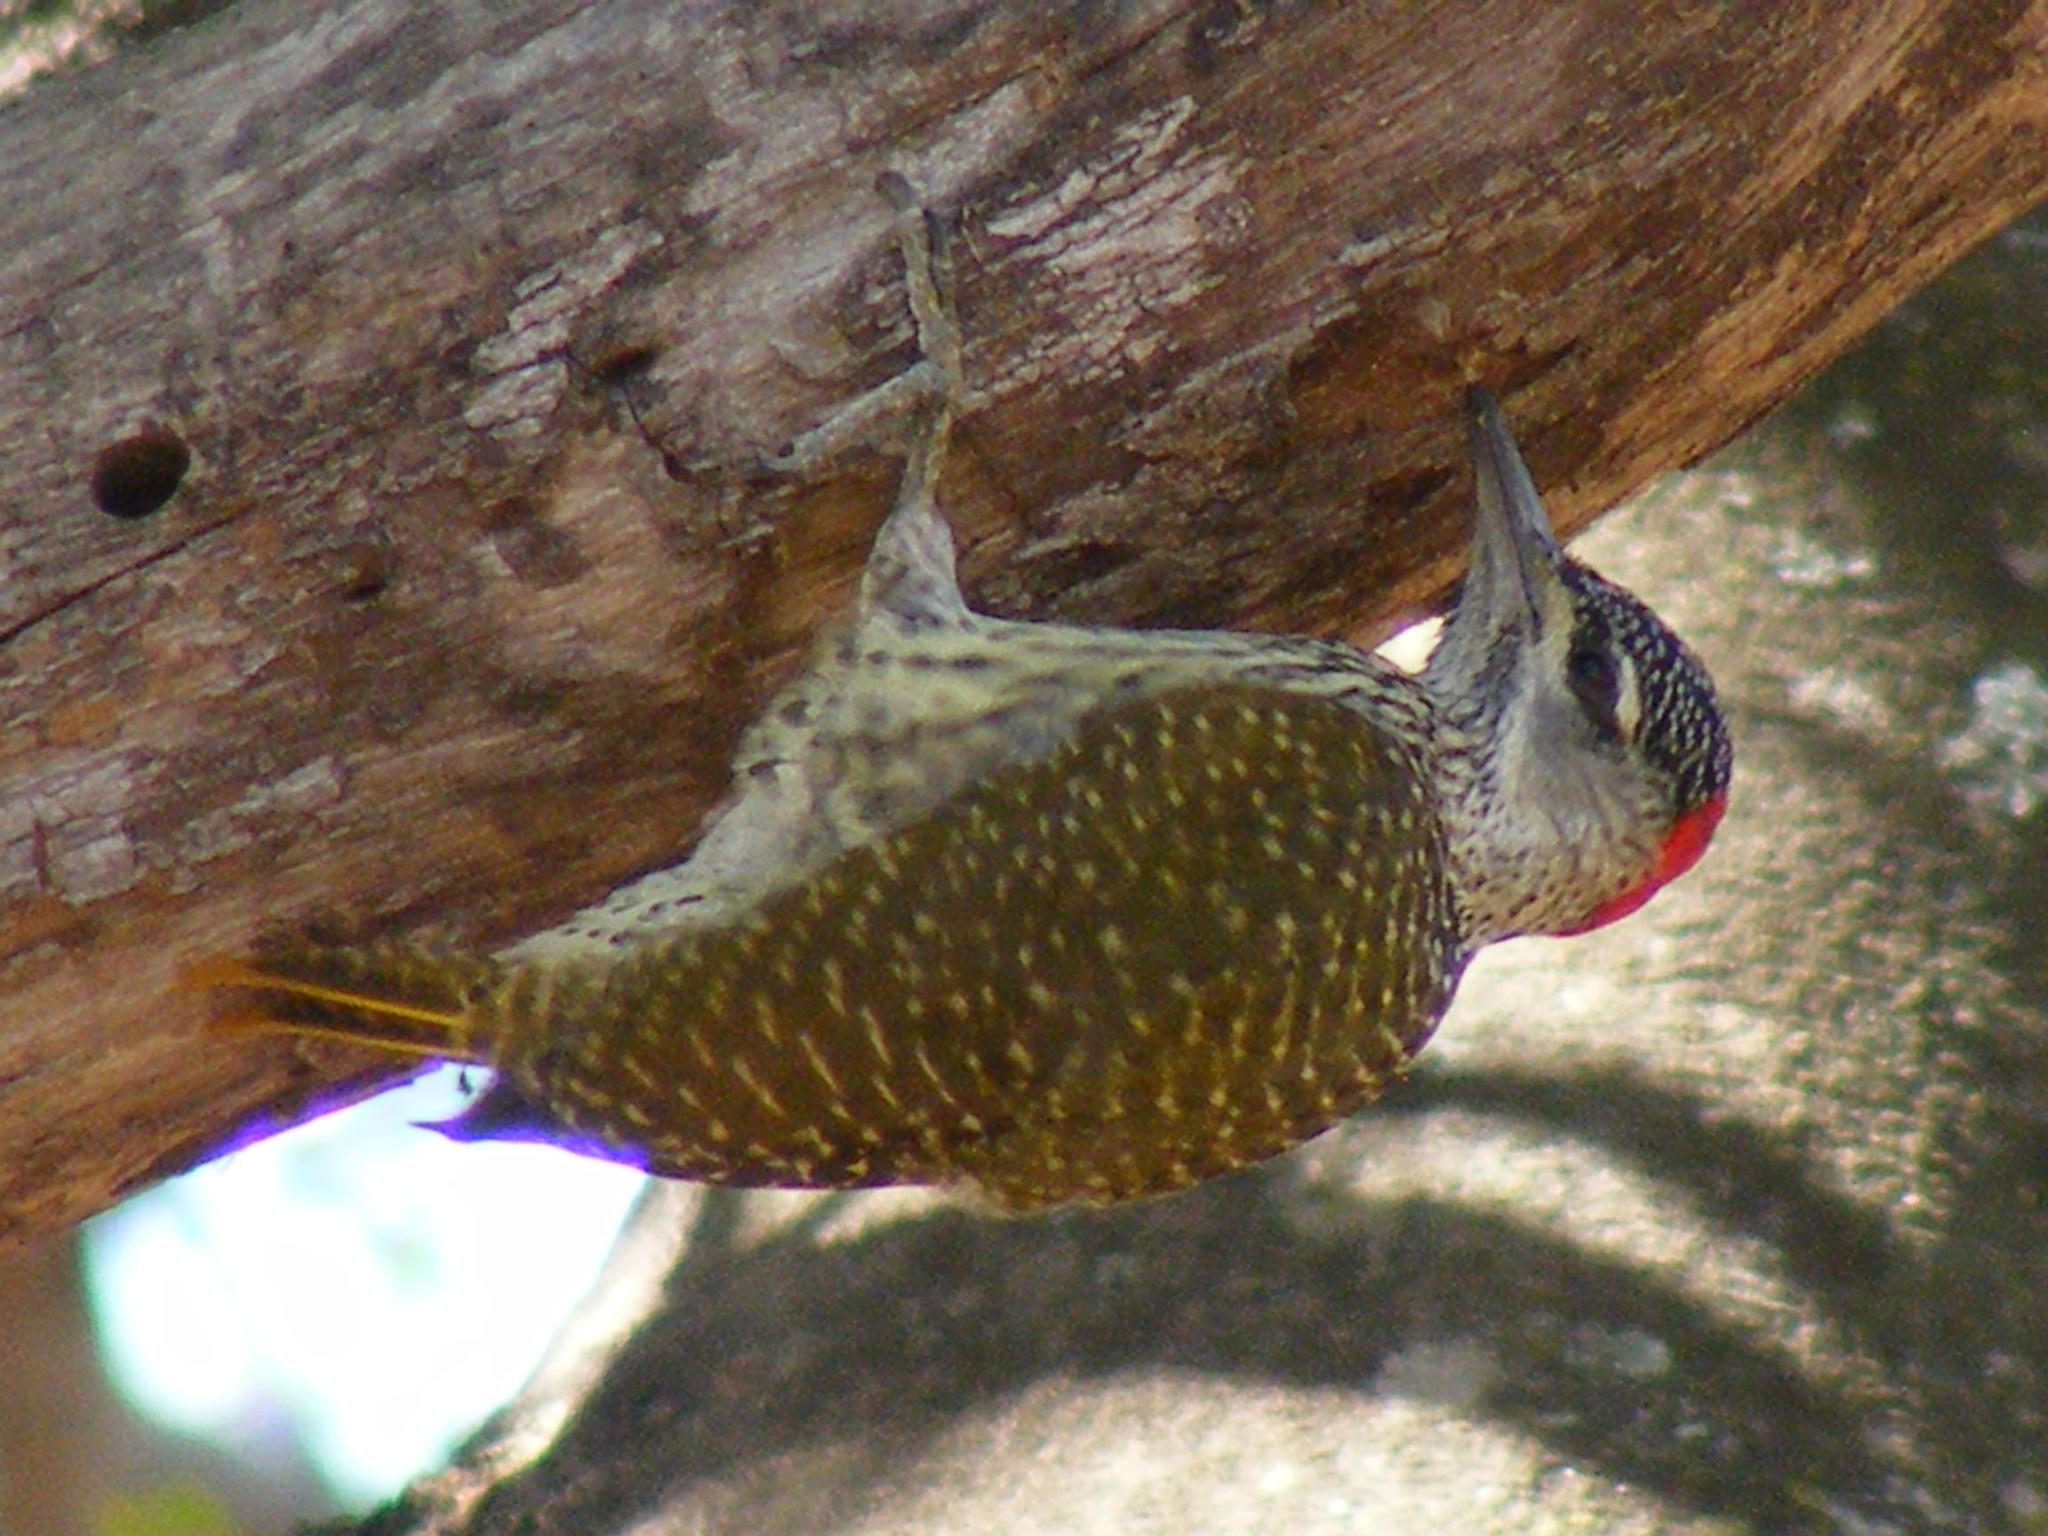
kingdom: Animalia
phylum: Chordata
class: Aves
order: Piciformes
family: Picidae
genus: Campethera
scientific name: Campethera abingoni
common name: Golden-tailed woodpecker
